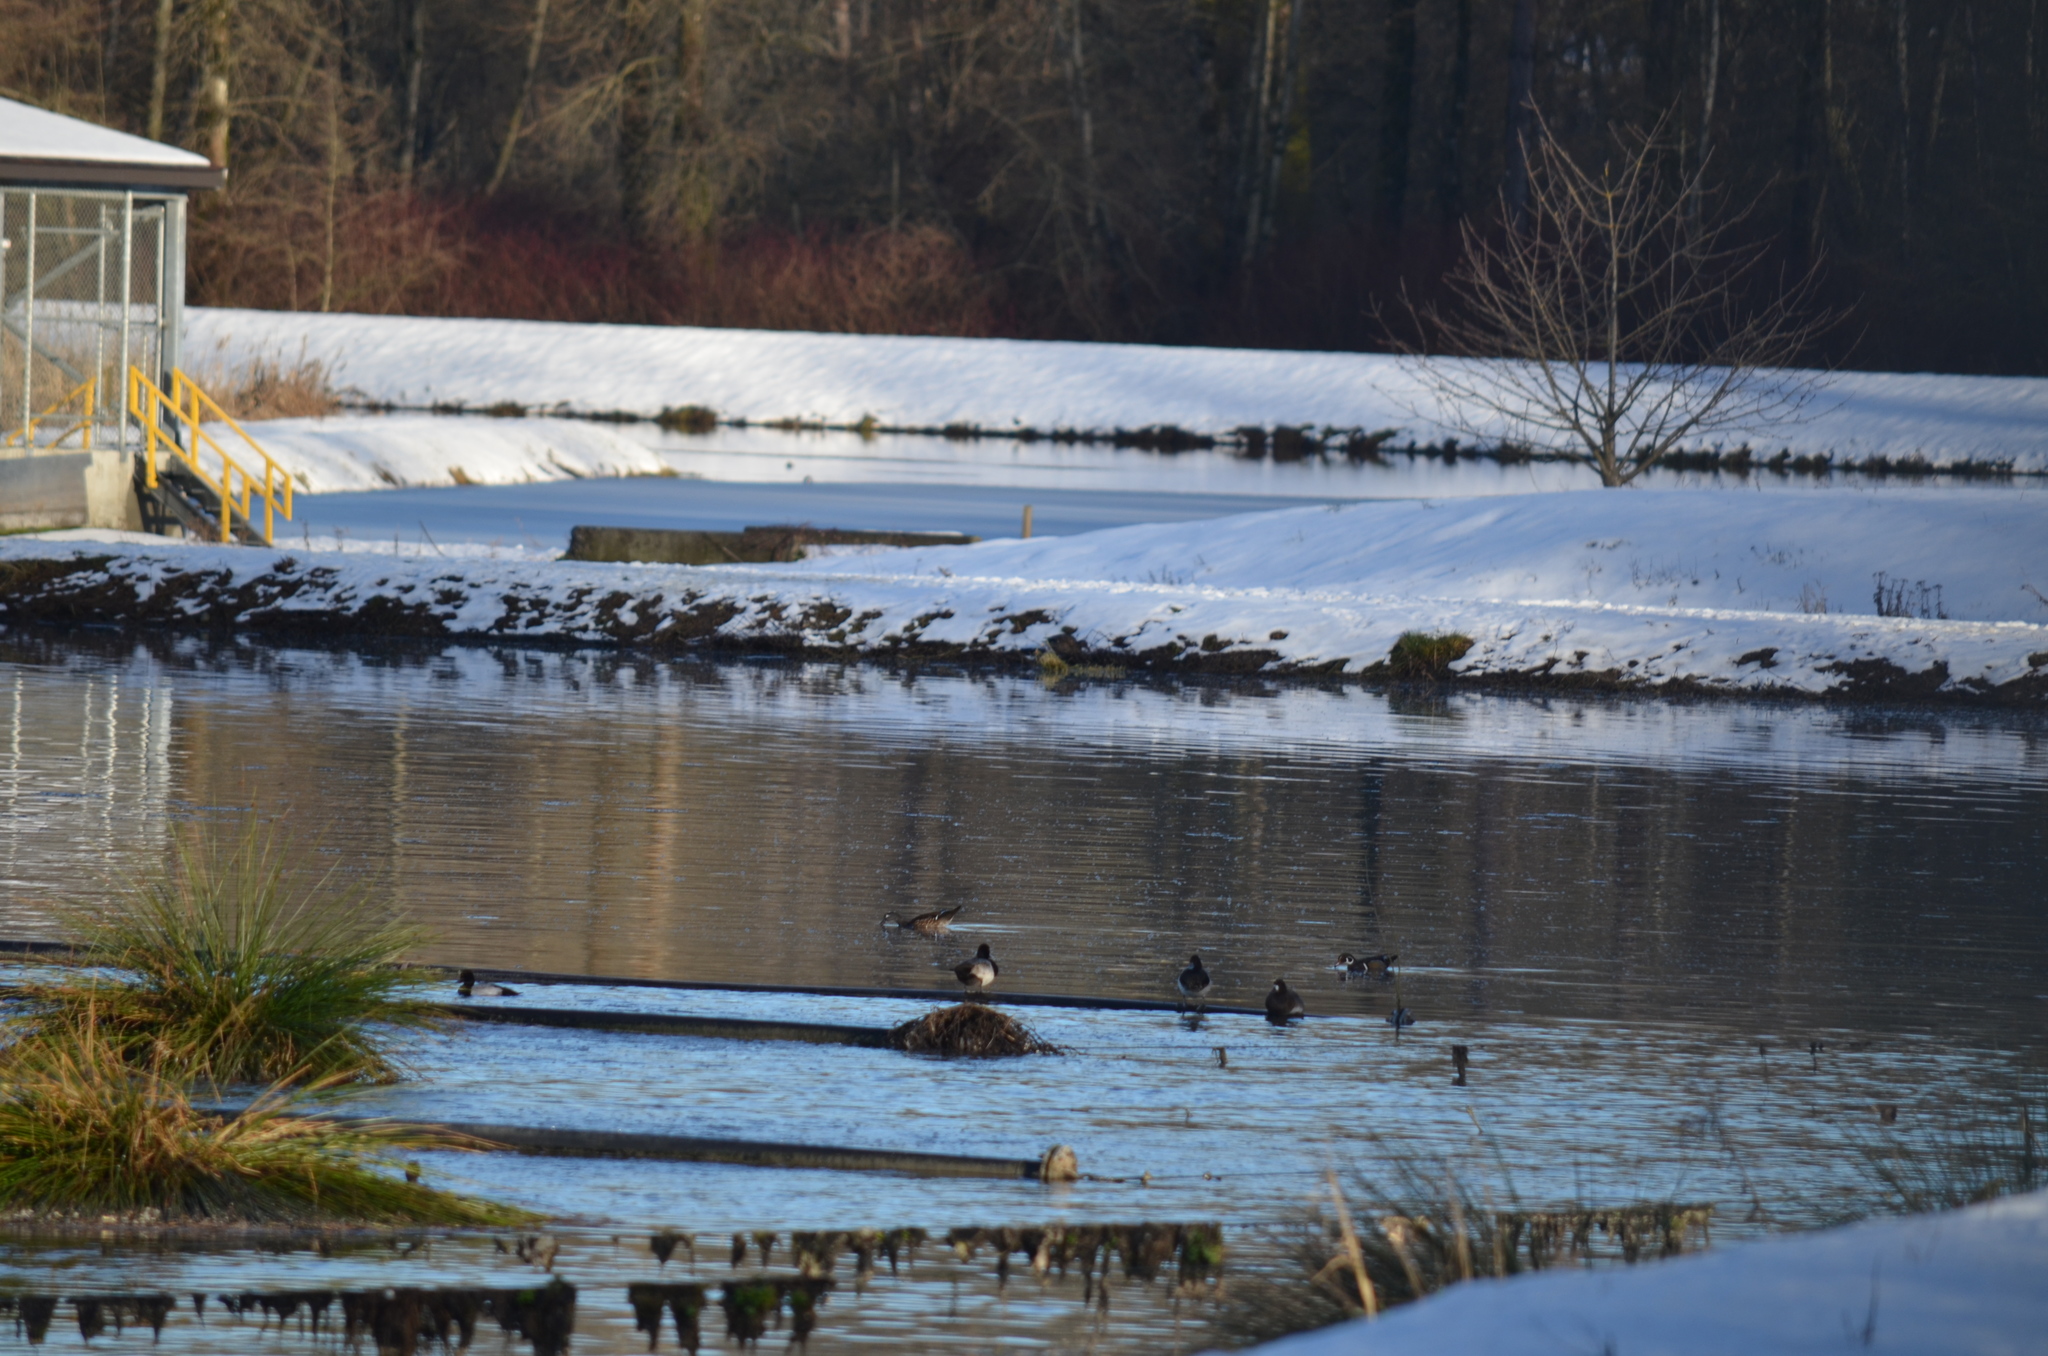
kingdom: Animalia
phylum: Chordata
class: Aves
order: Anseriformes
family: Anatidae
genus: Aix
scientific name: Aix sponsa
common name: Wood duck
